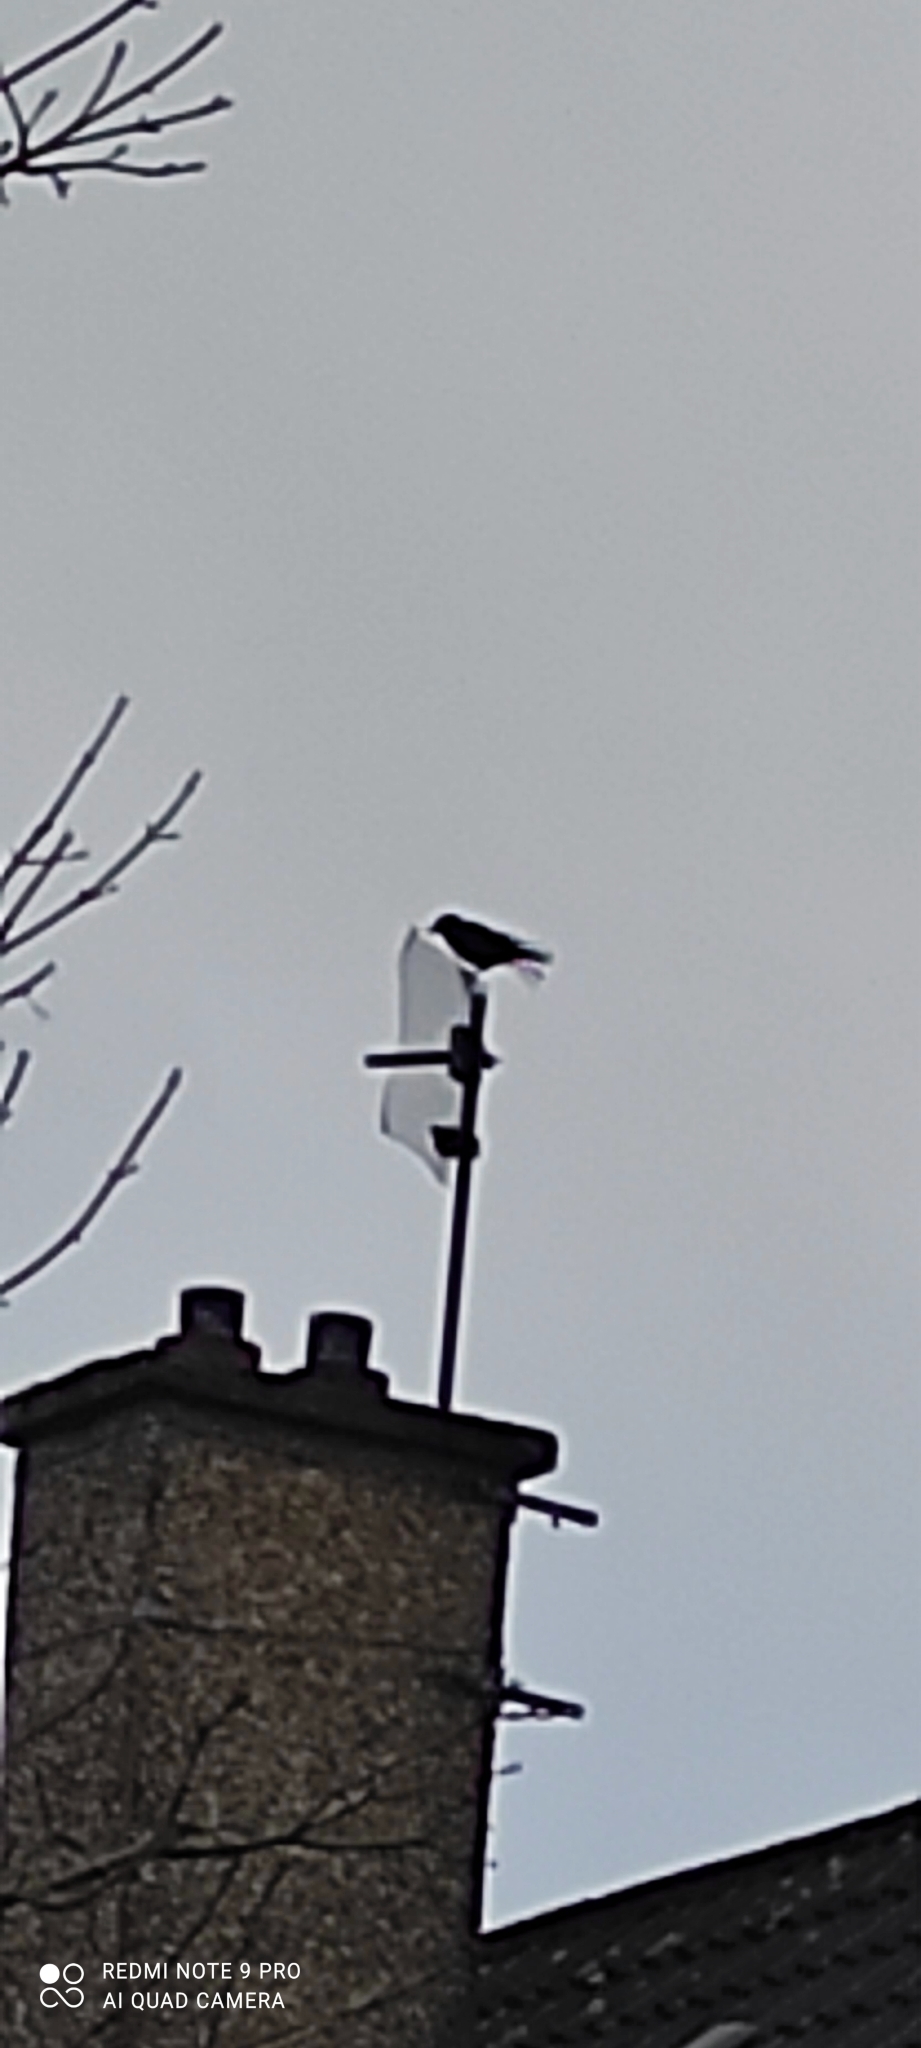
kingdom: Animalia
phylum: Chordata
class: Aves
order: Passeriformes
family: Corvidae
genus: Coloeus
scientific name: Coloeus monedula
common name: Western jackdaw
